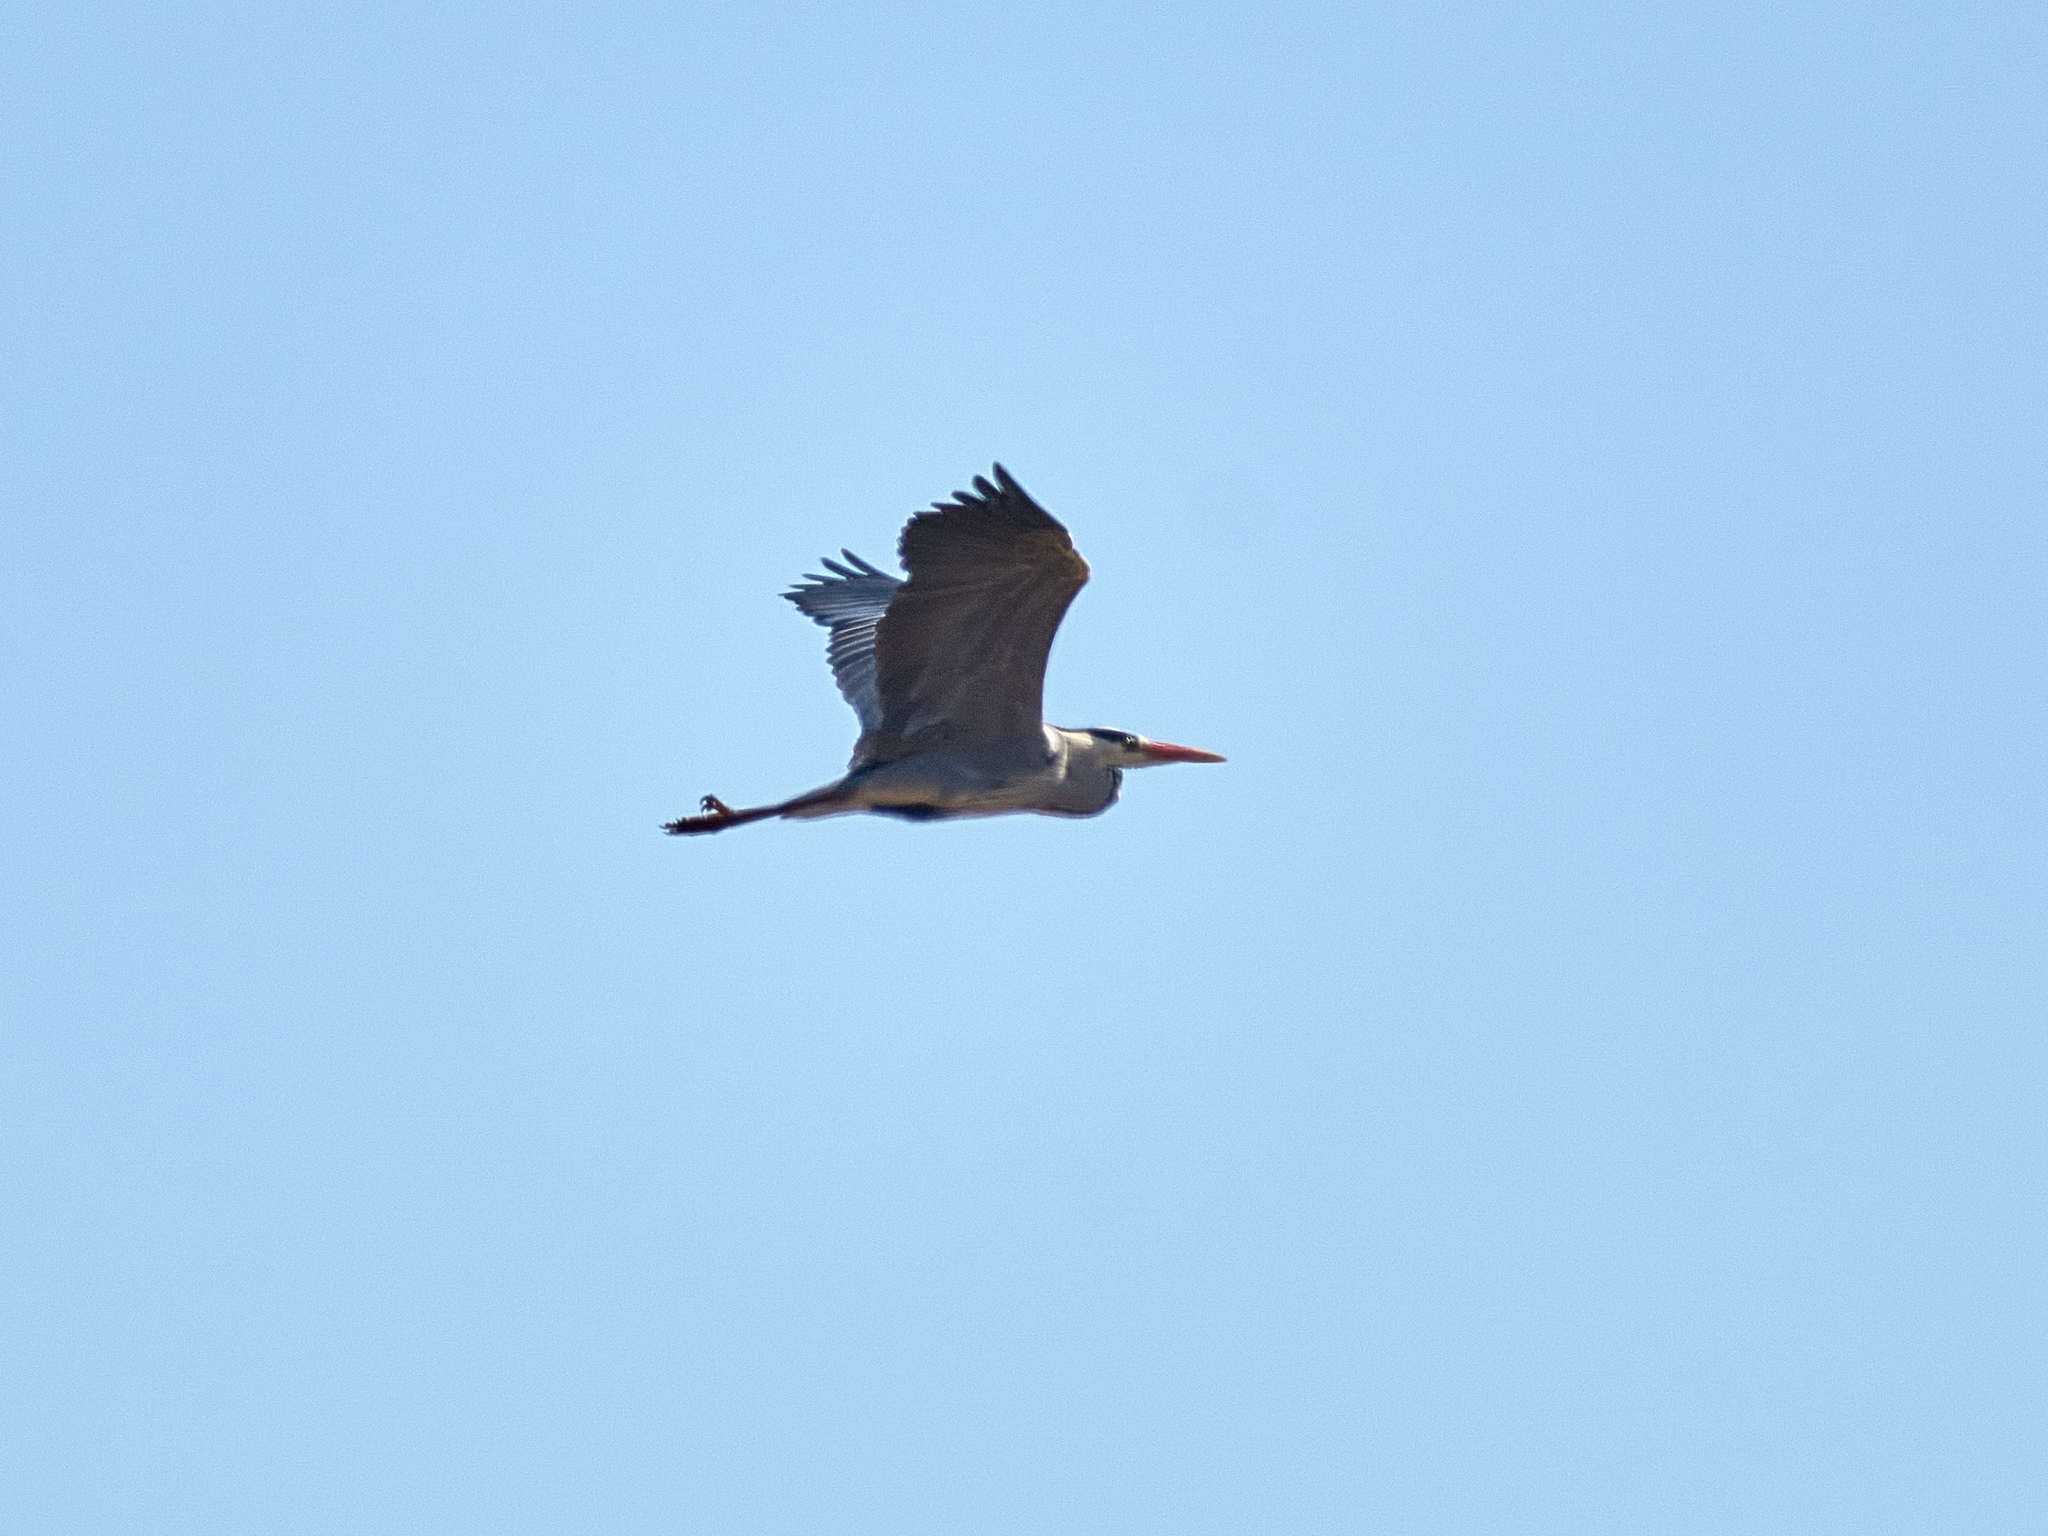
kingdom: Animalia
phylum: Chordata
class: Aves
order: Pelecaniformes
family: Ardeidae
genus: Ardea
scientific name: Ardea cinerea
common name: Grey heron
